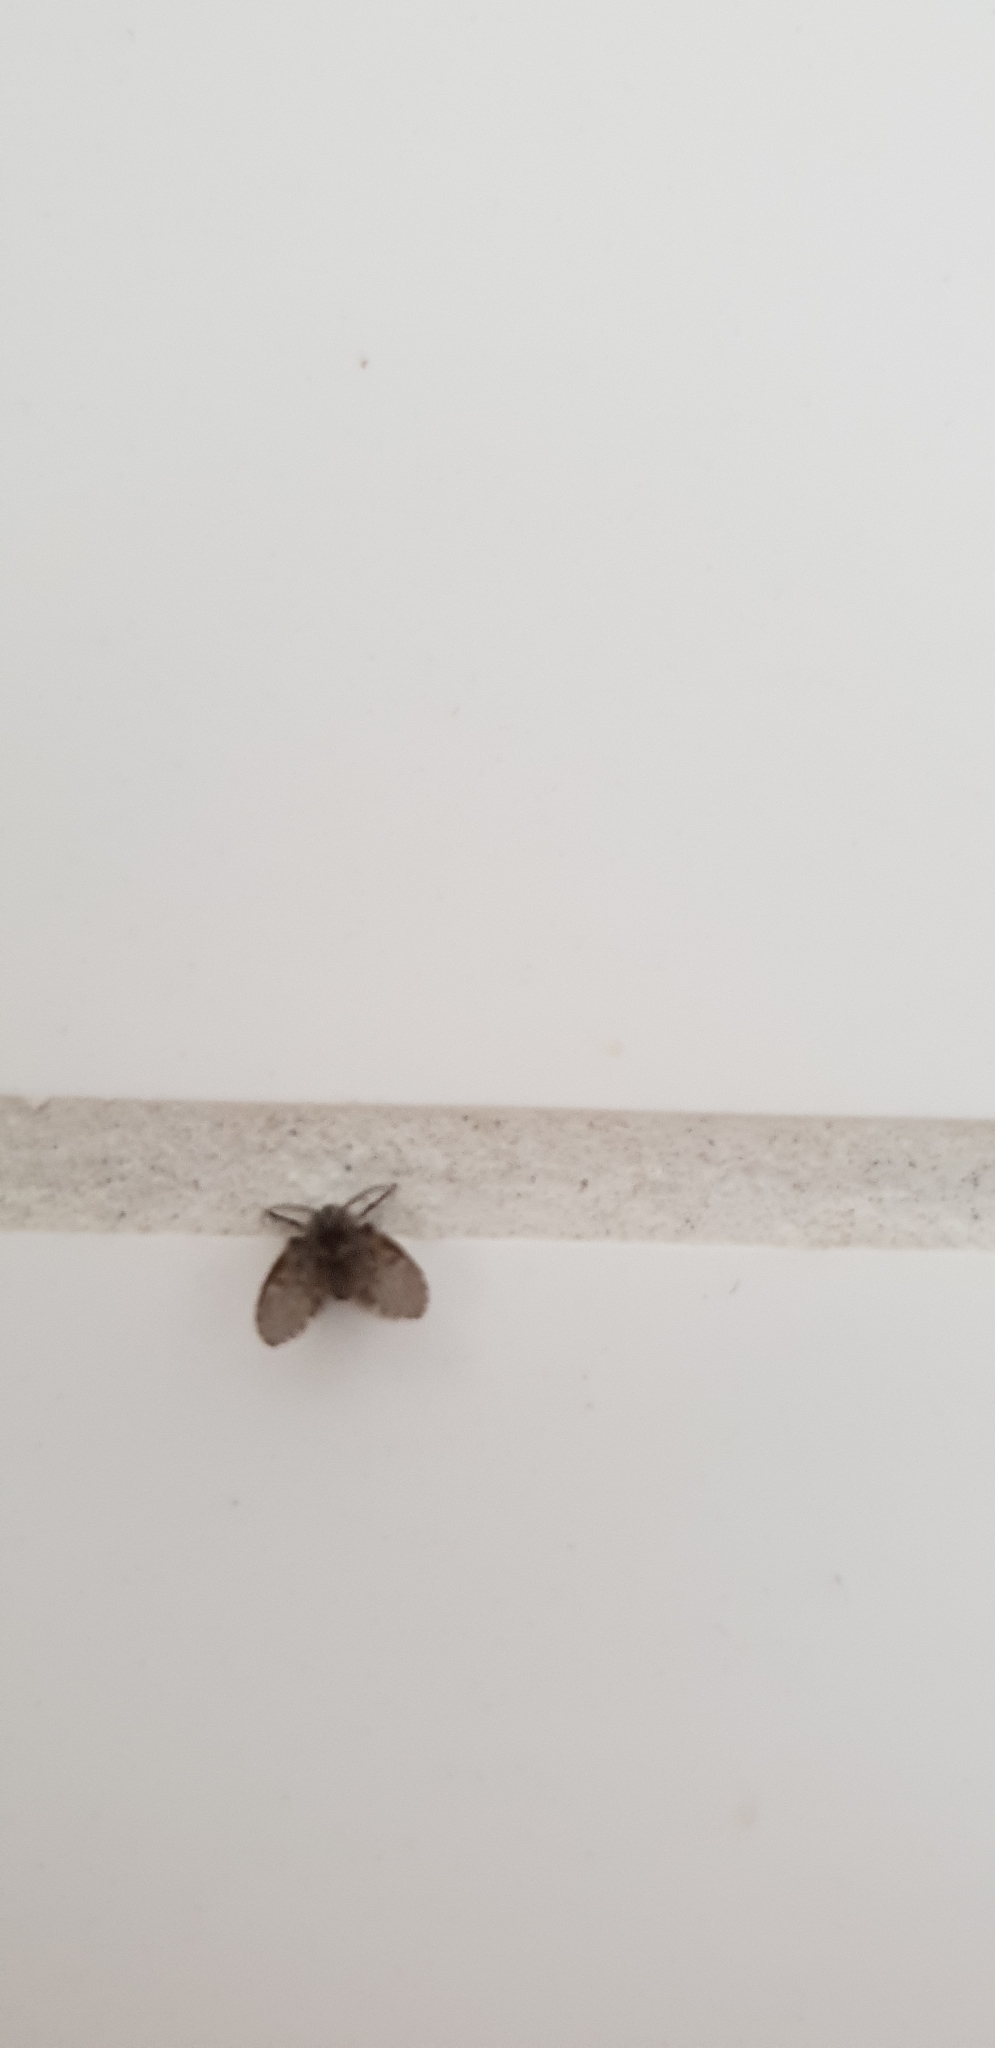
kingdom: Animalia
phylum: Arthropoda
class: Insecta
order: Diptera
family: Psychodidae
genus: Clogmia
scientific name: Clogmia albipunctatus
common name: White-spotted moth fly
